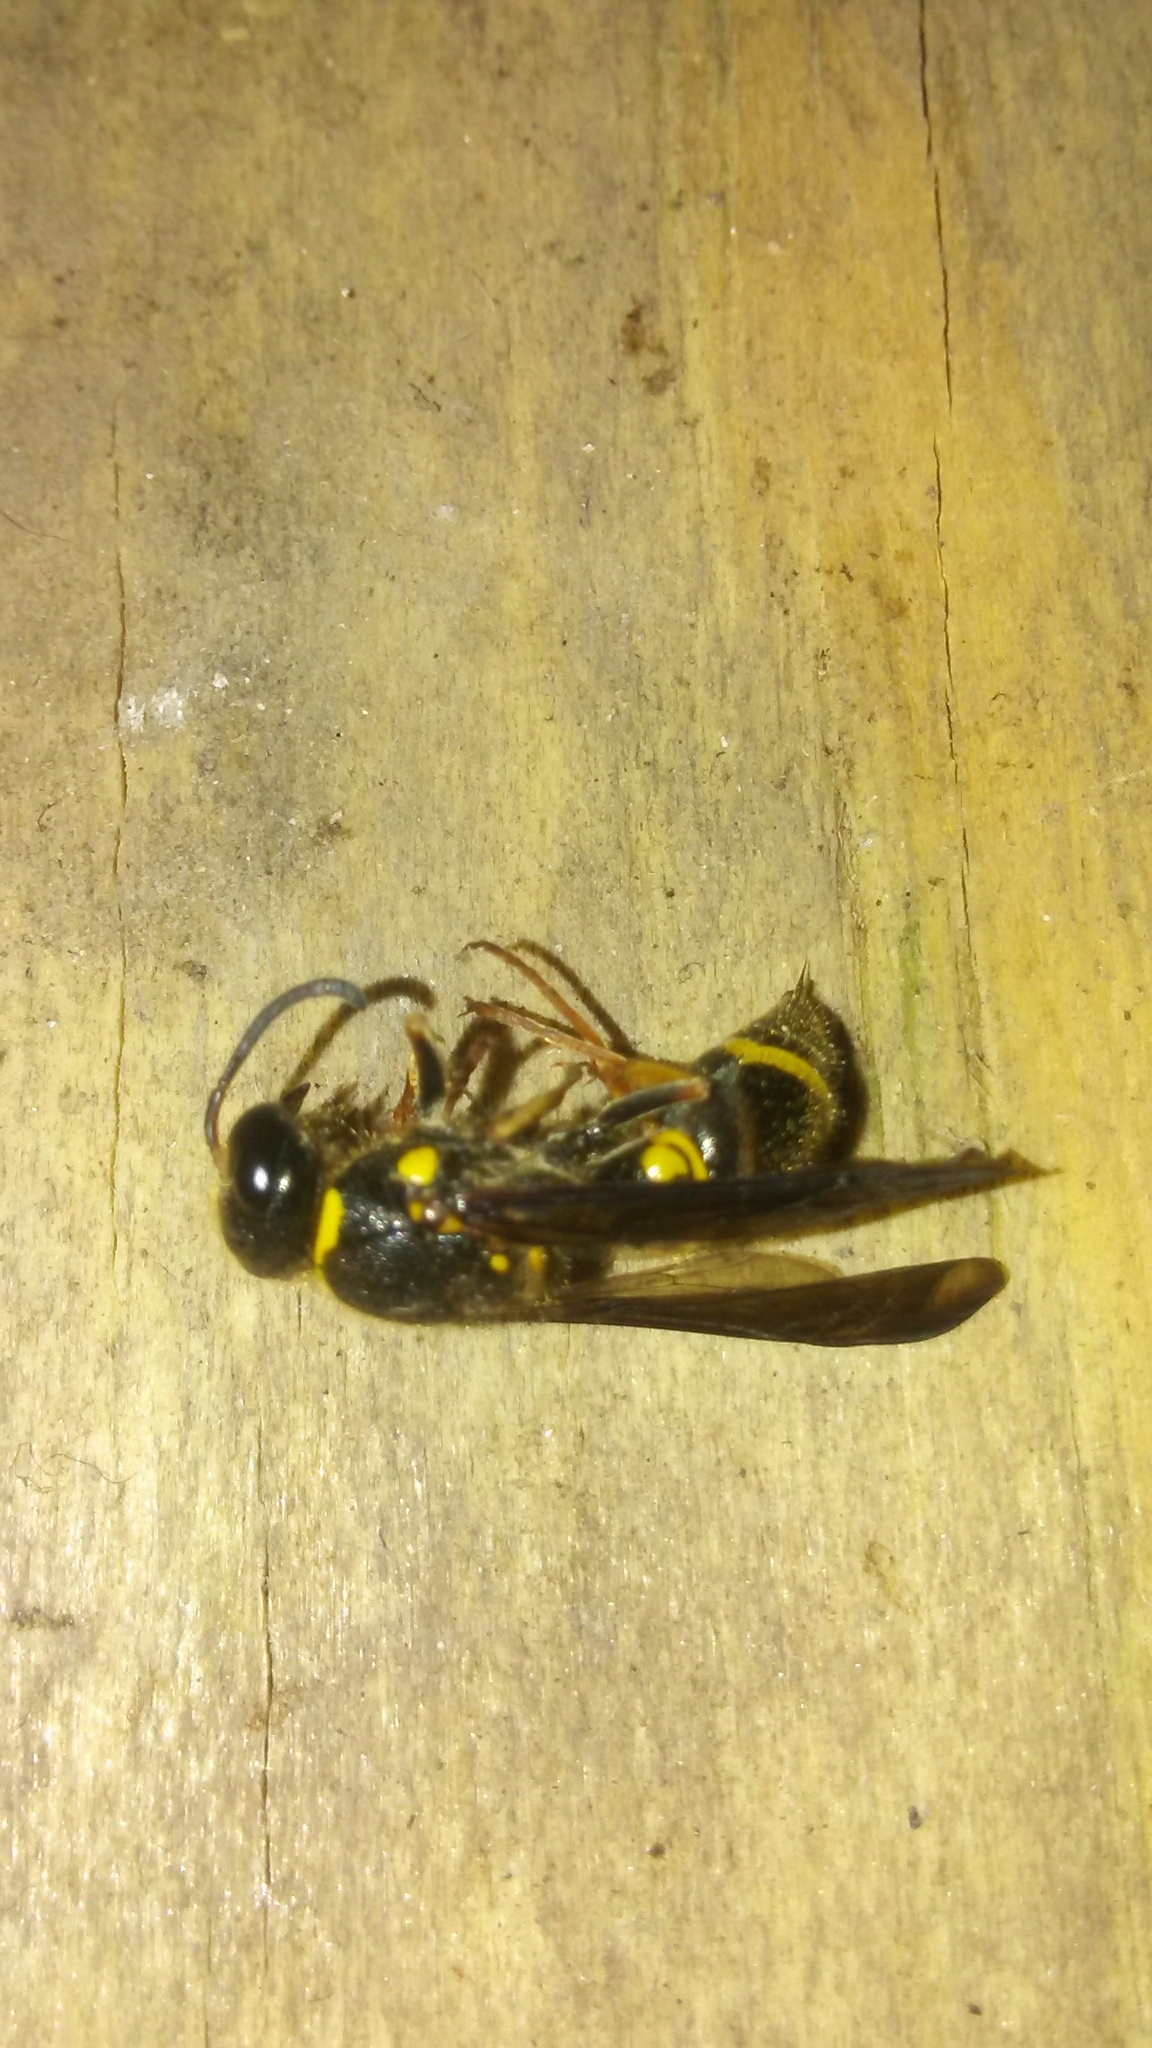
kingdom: Animalia
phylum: Arthropoda
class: Insecta
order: Hymenoptera
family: Vespidae
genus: Ancistrocerus
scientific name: Ancistrocerus campestris
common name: Smiling mason wasp
